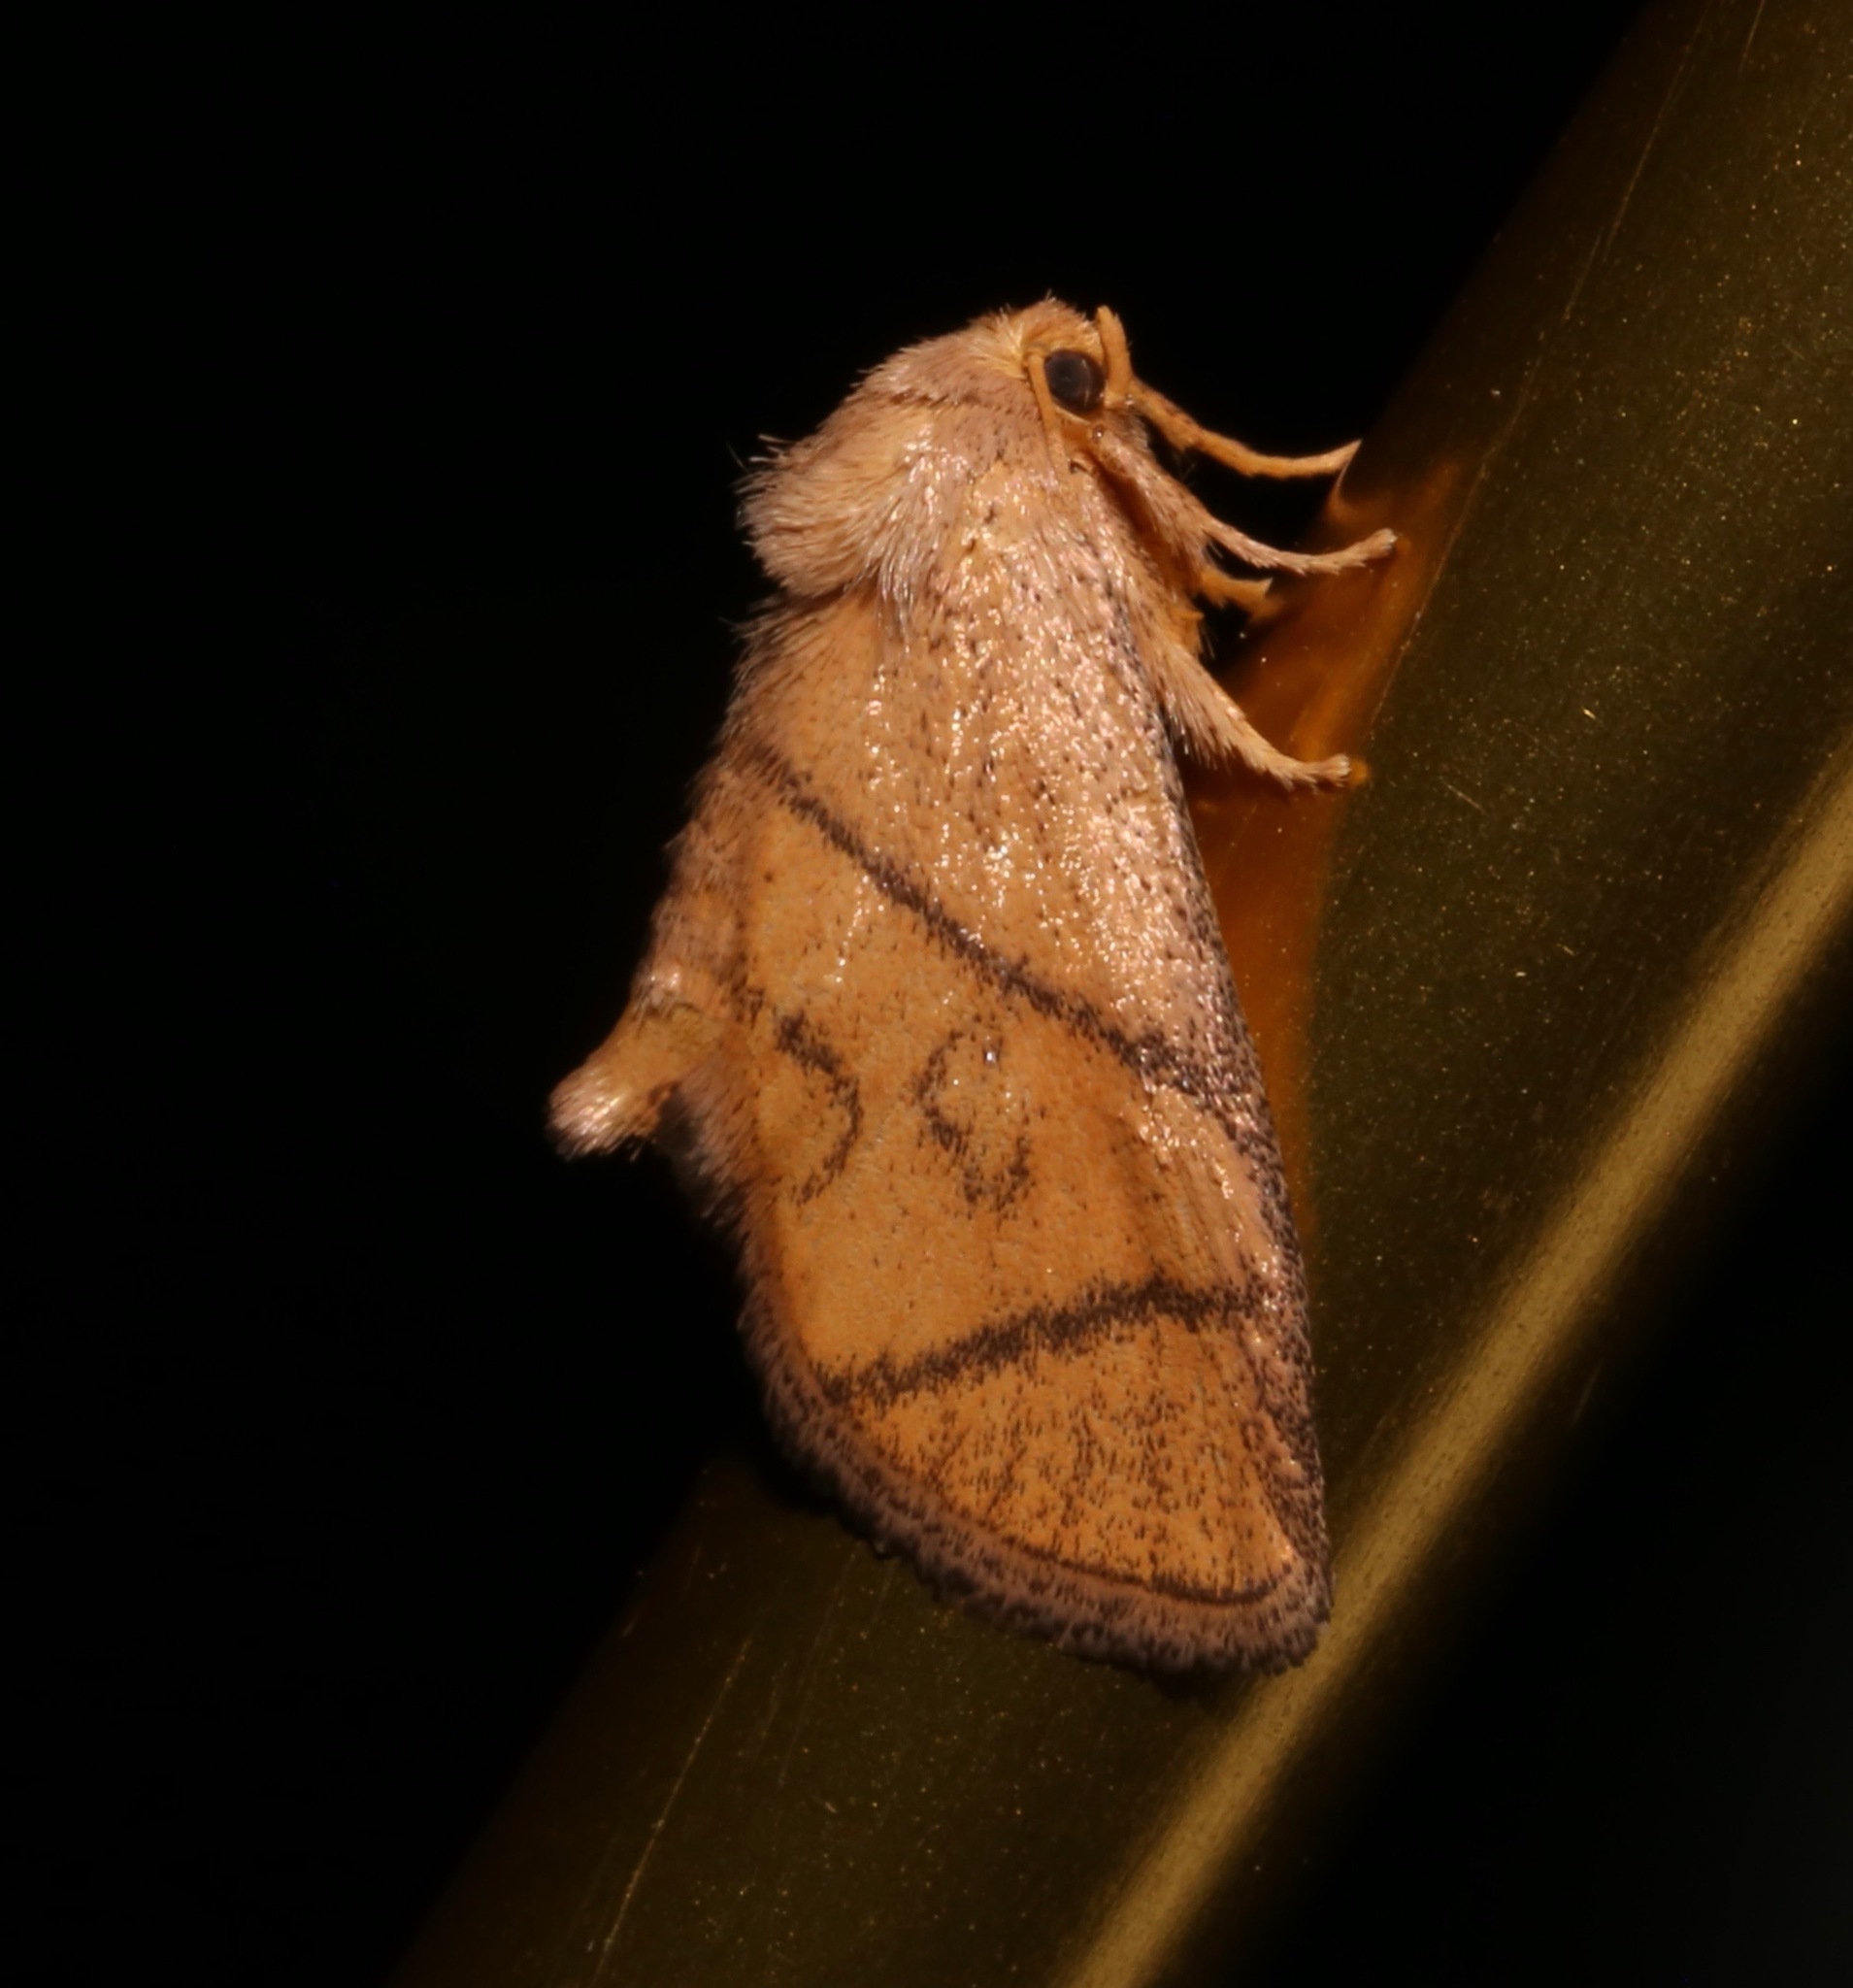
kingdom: Animalia
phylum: Arthropoda
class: Insecta
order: Lepidoptera
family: Limacodidae
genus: Apoda
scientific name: Apoda y-inversa
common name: Yellow-collared slug moth
